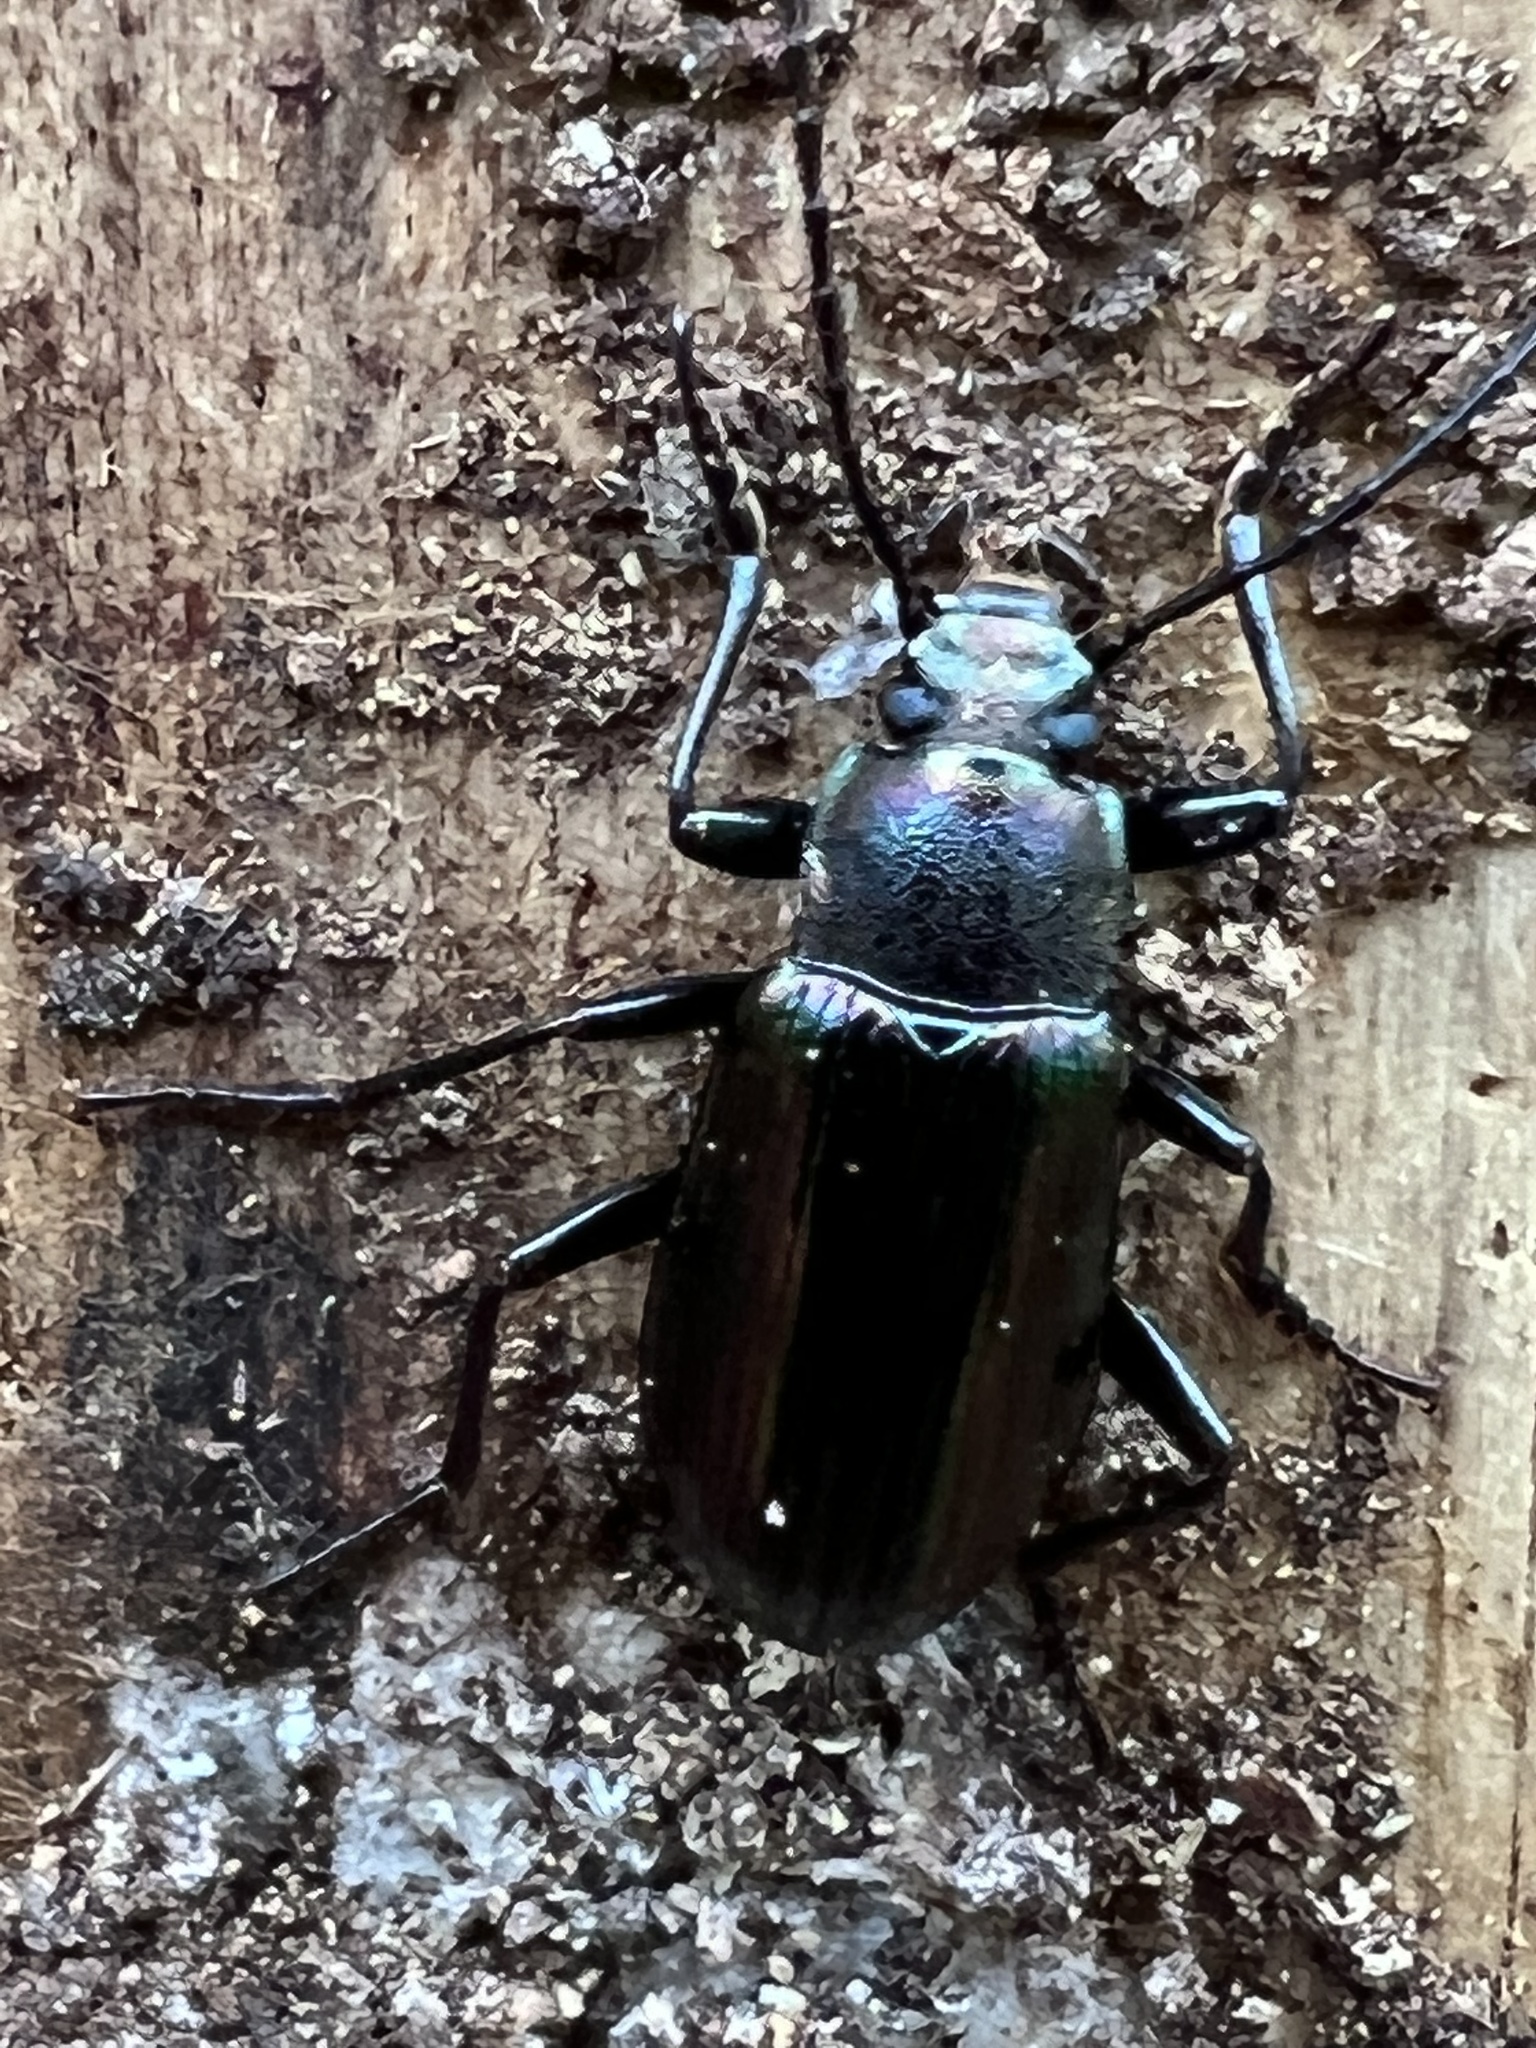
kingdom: Animalia
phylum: Arthropoda
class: Insecta
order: Coleoptera
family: Tenebrionidae
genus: Tarpela
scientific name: Tarpela micans
